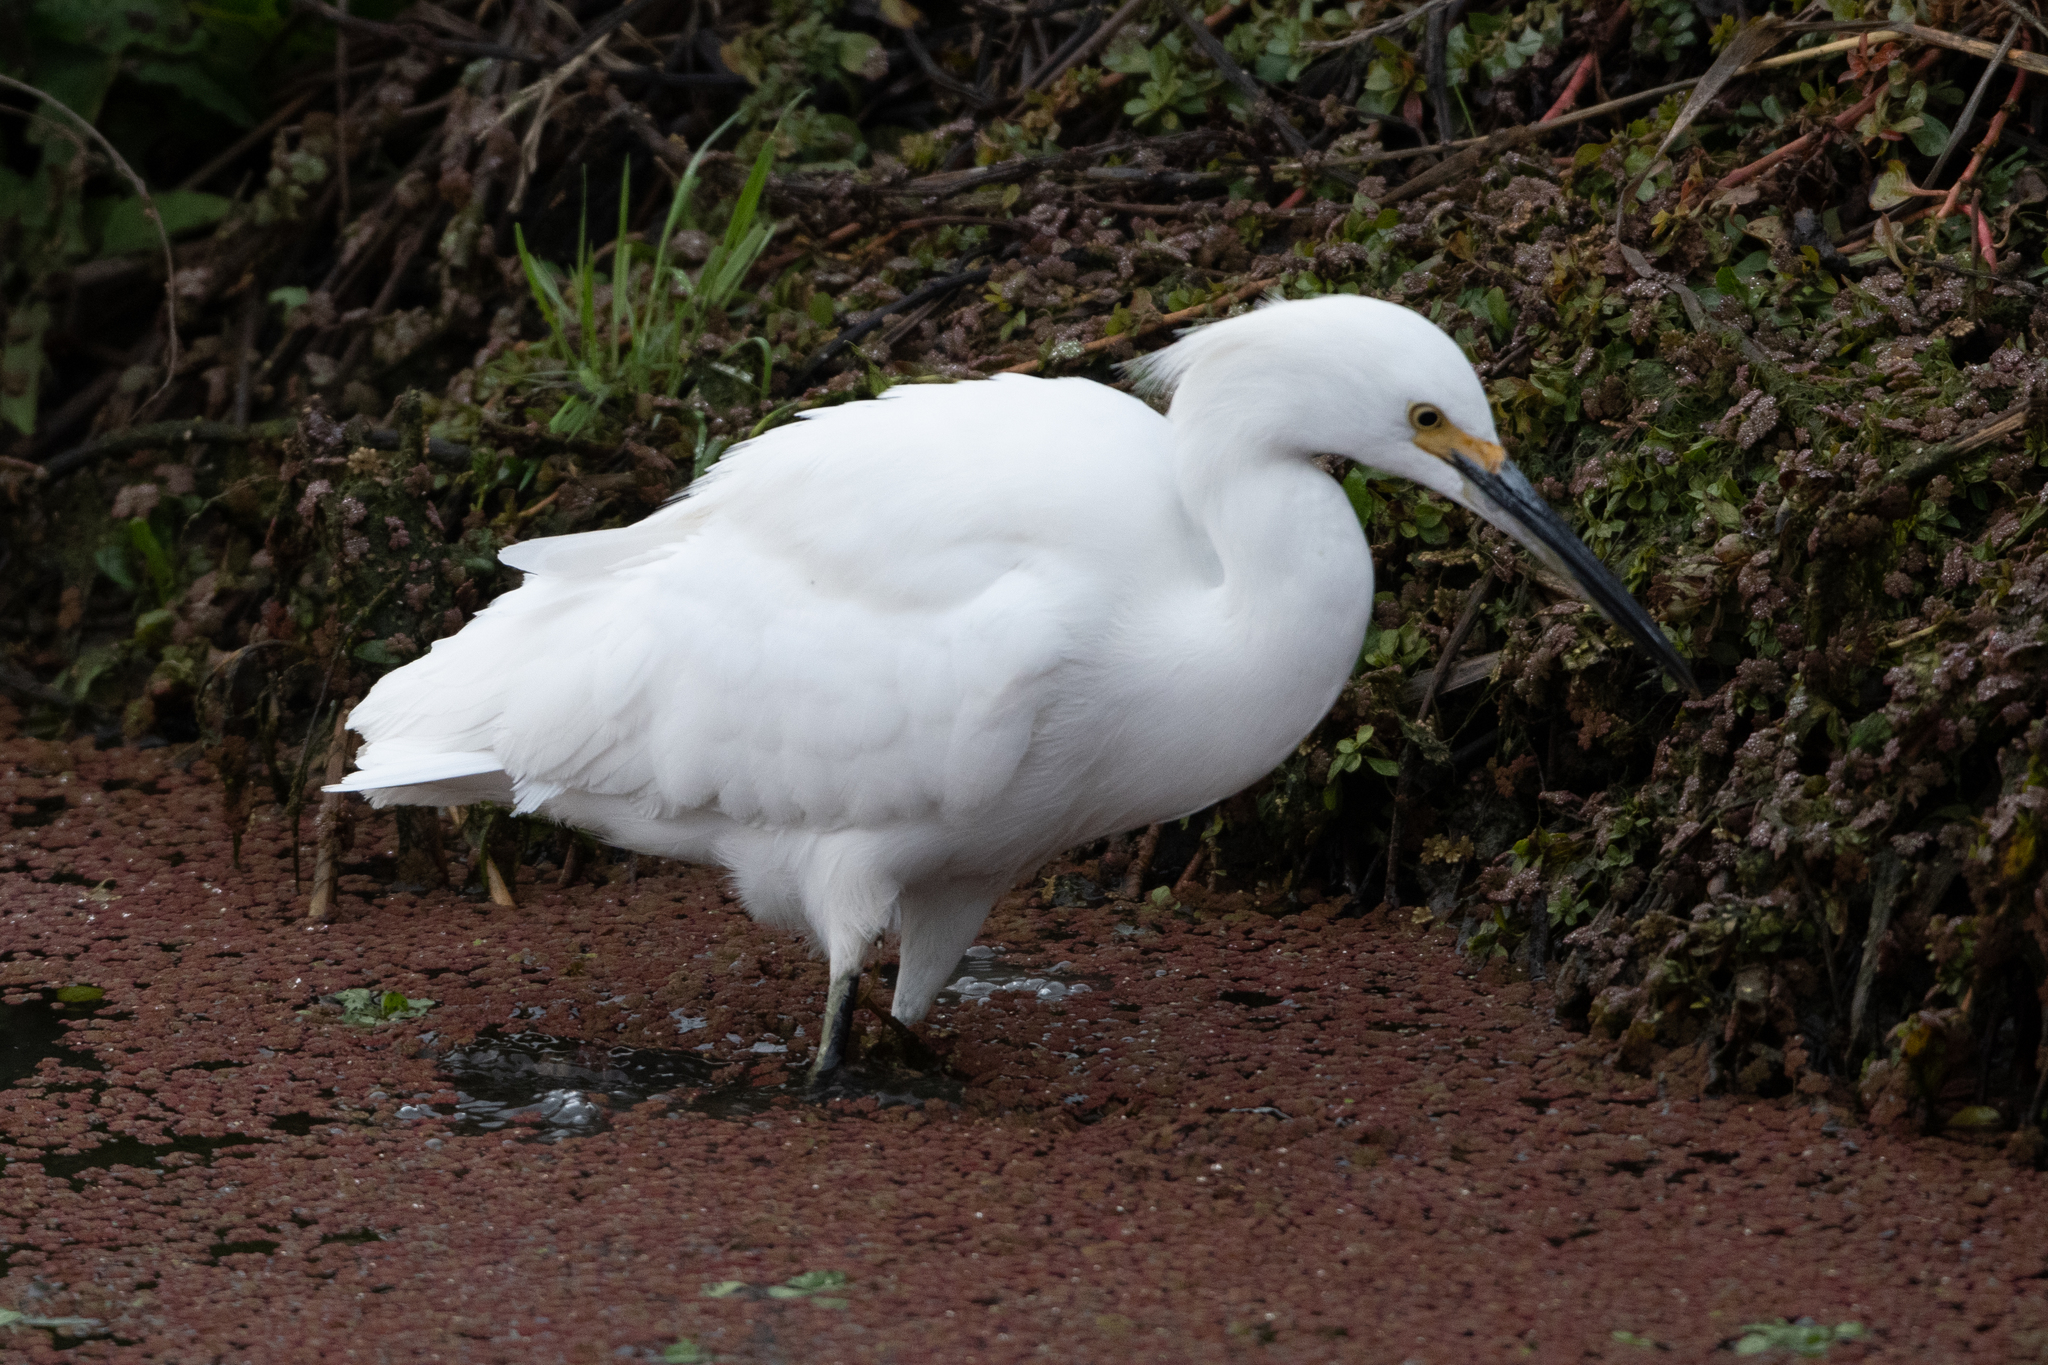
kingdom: Animalia
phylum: Chordata
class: Aves
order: Pelecaniformes
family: Ardeidae
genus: Egretta
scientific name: Egretta thula
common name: Snowy egret
